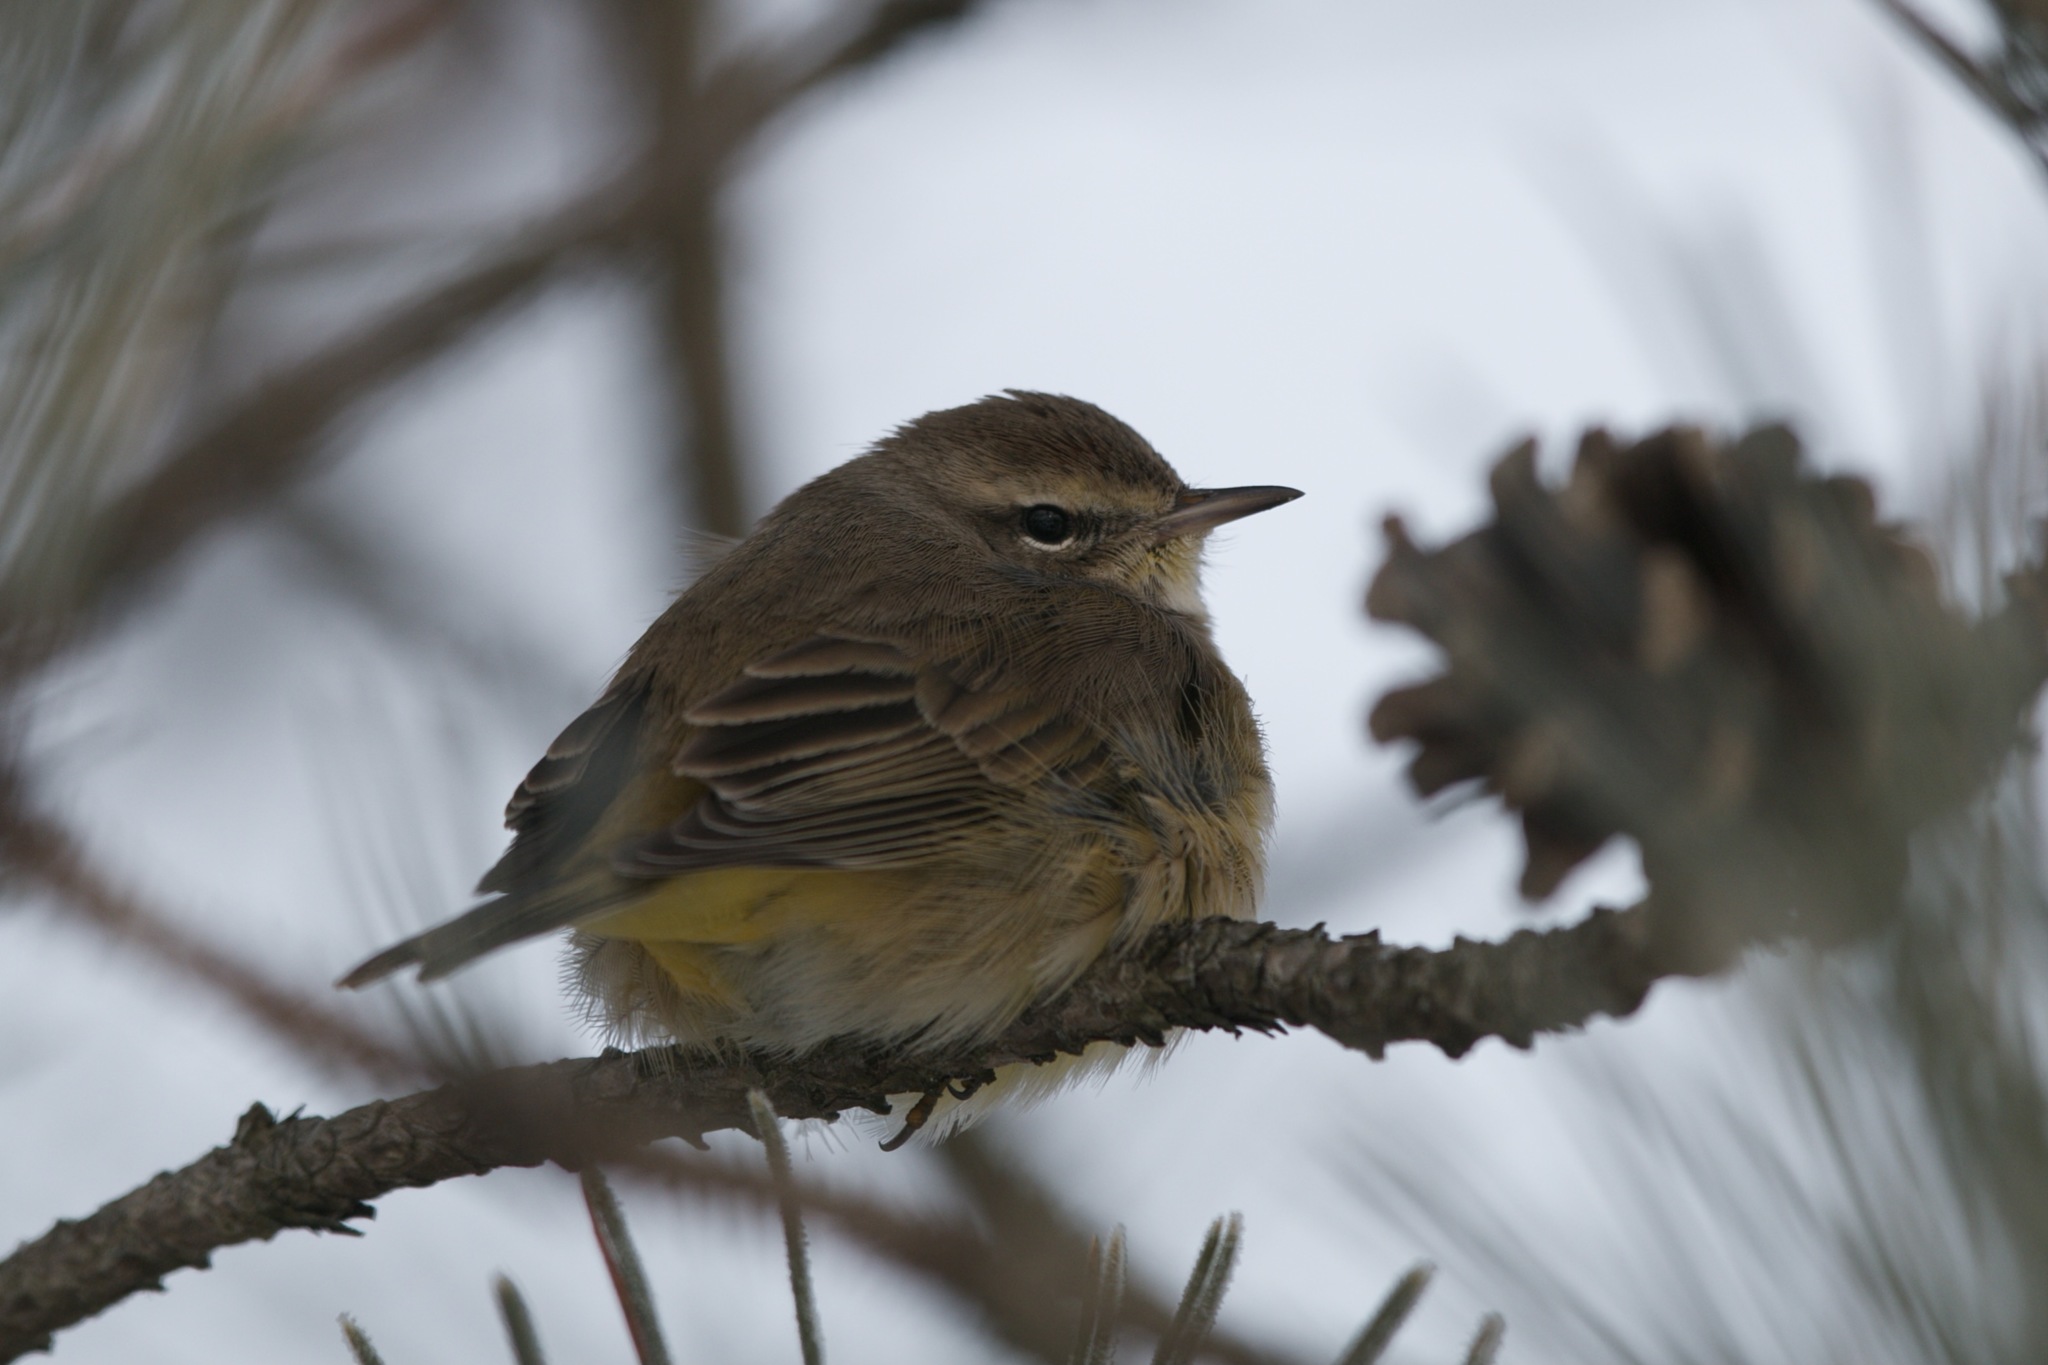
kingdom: Animalia
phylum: Chordata
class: Aves
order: Passeriformes
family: Parulidae
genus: Setophaga
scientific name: Setophaga palmarum
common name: Palm warbler
